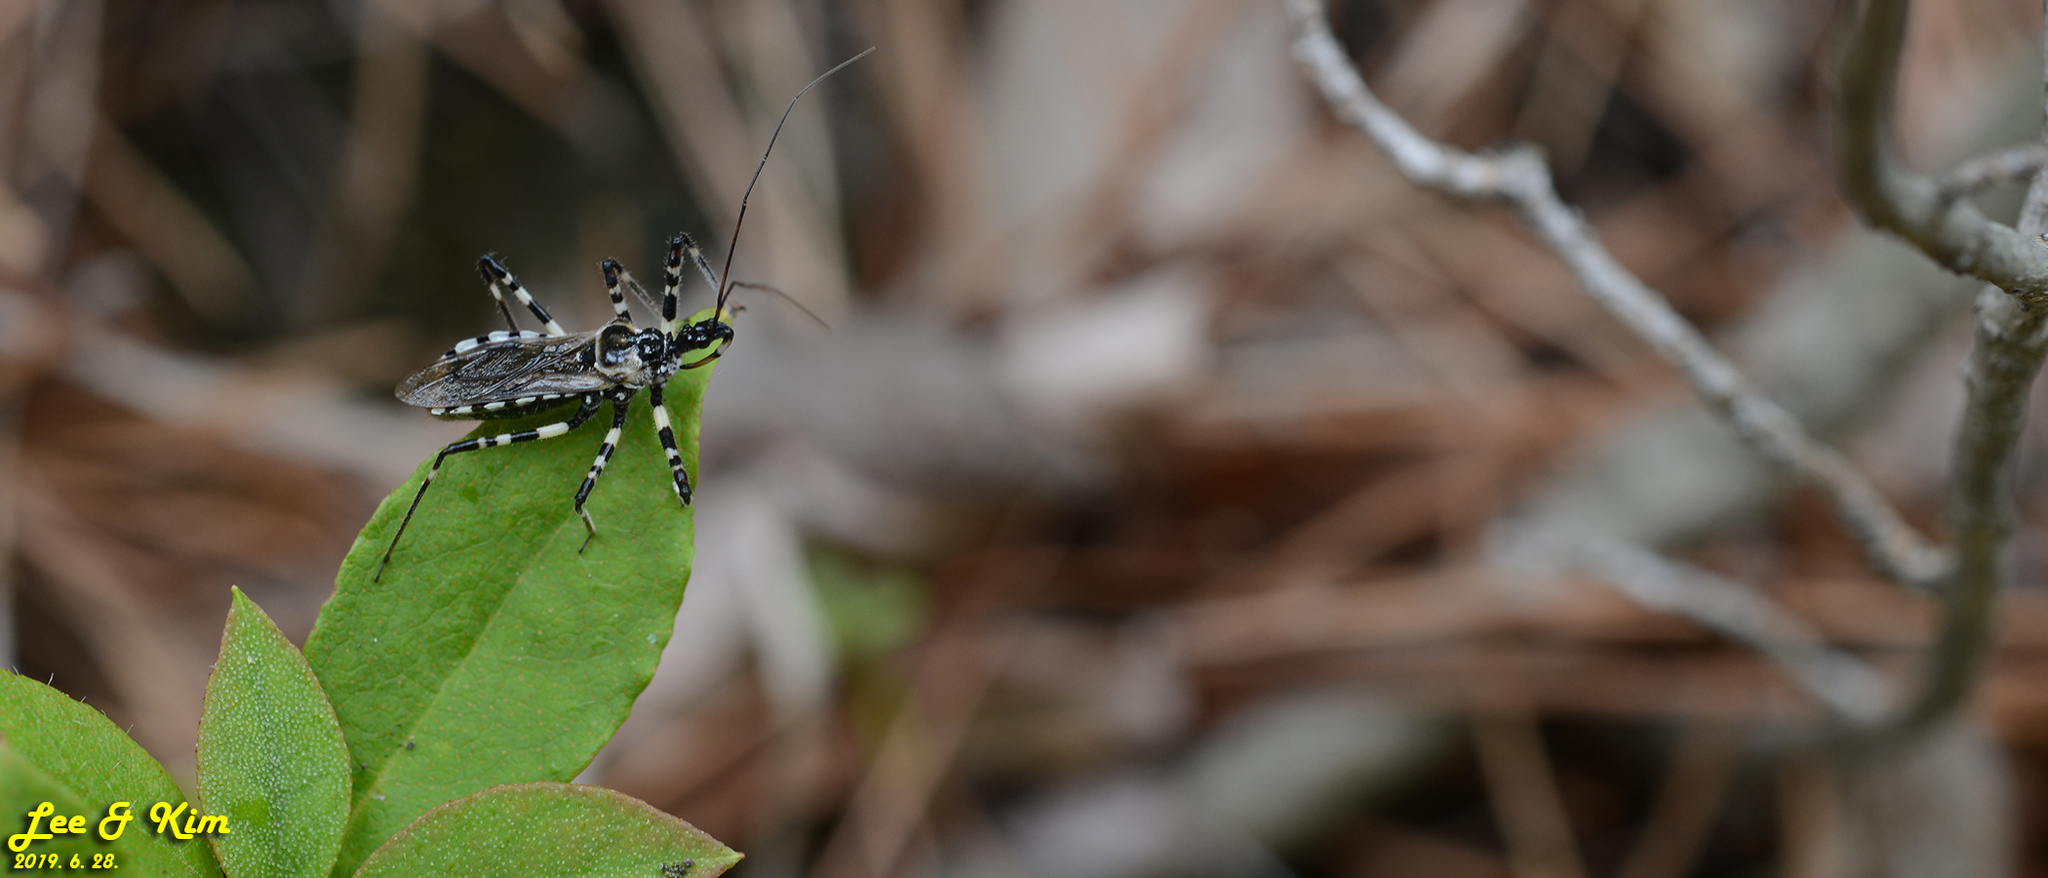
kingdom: Animalia
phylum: Arthropoda
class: Insecta
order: Hemiptera
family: Reduviidae
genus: Sphedanolestes
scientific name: Sphedanolestes impressicollis
